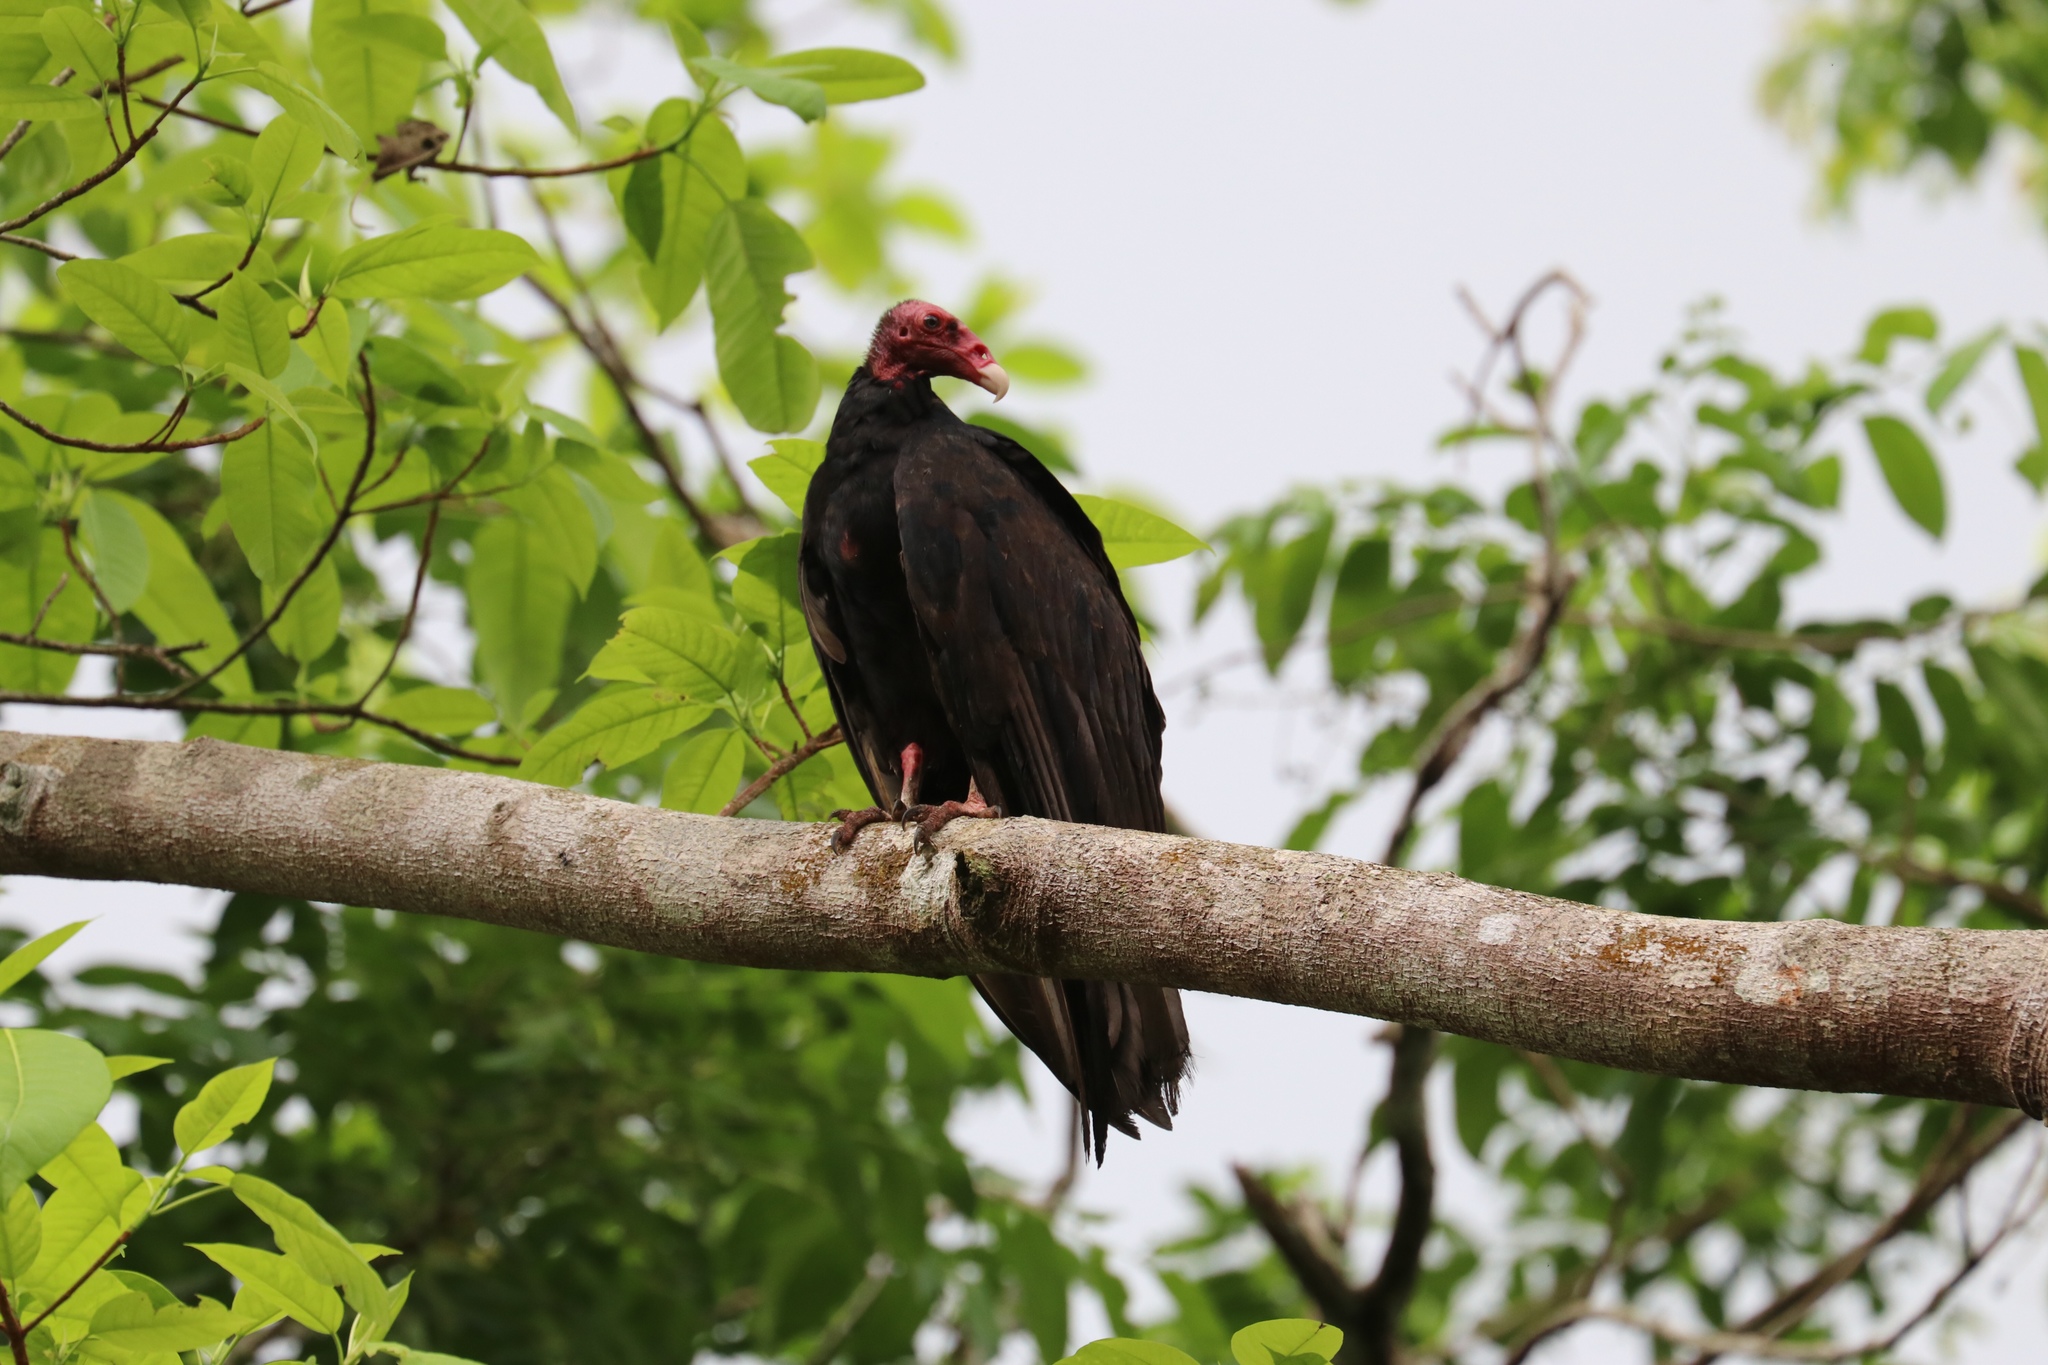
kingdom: Animalia
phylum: Chordata
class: Aves
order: Accipitriformes
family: Cathartidae
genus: Cathartes
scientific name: Cathartes aura
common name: Turkey vulture
